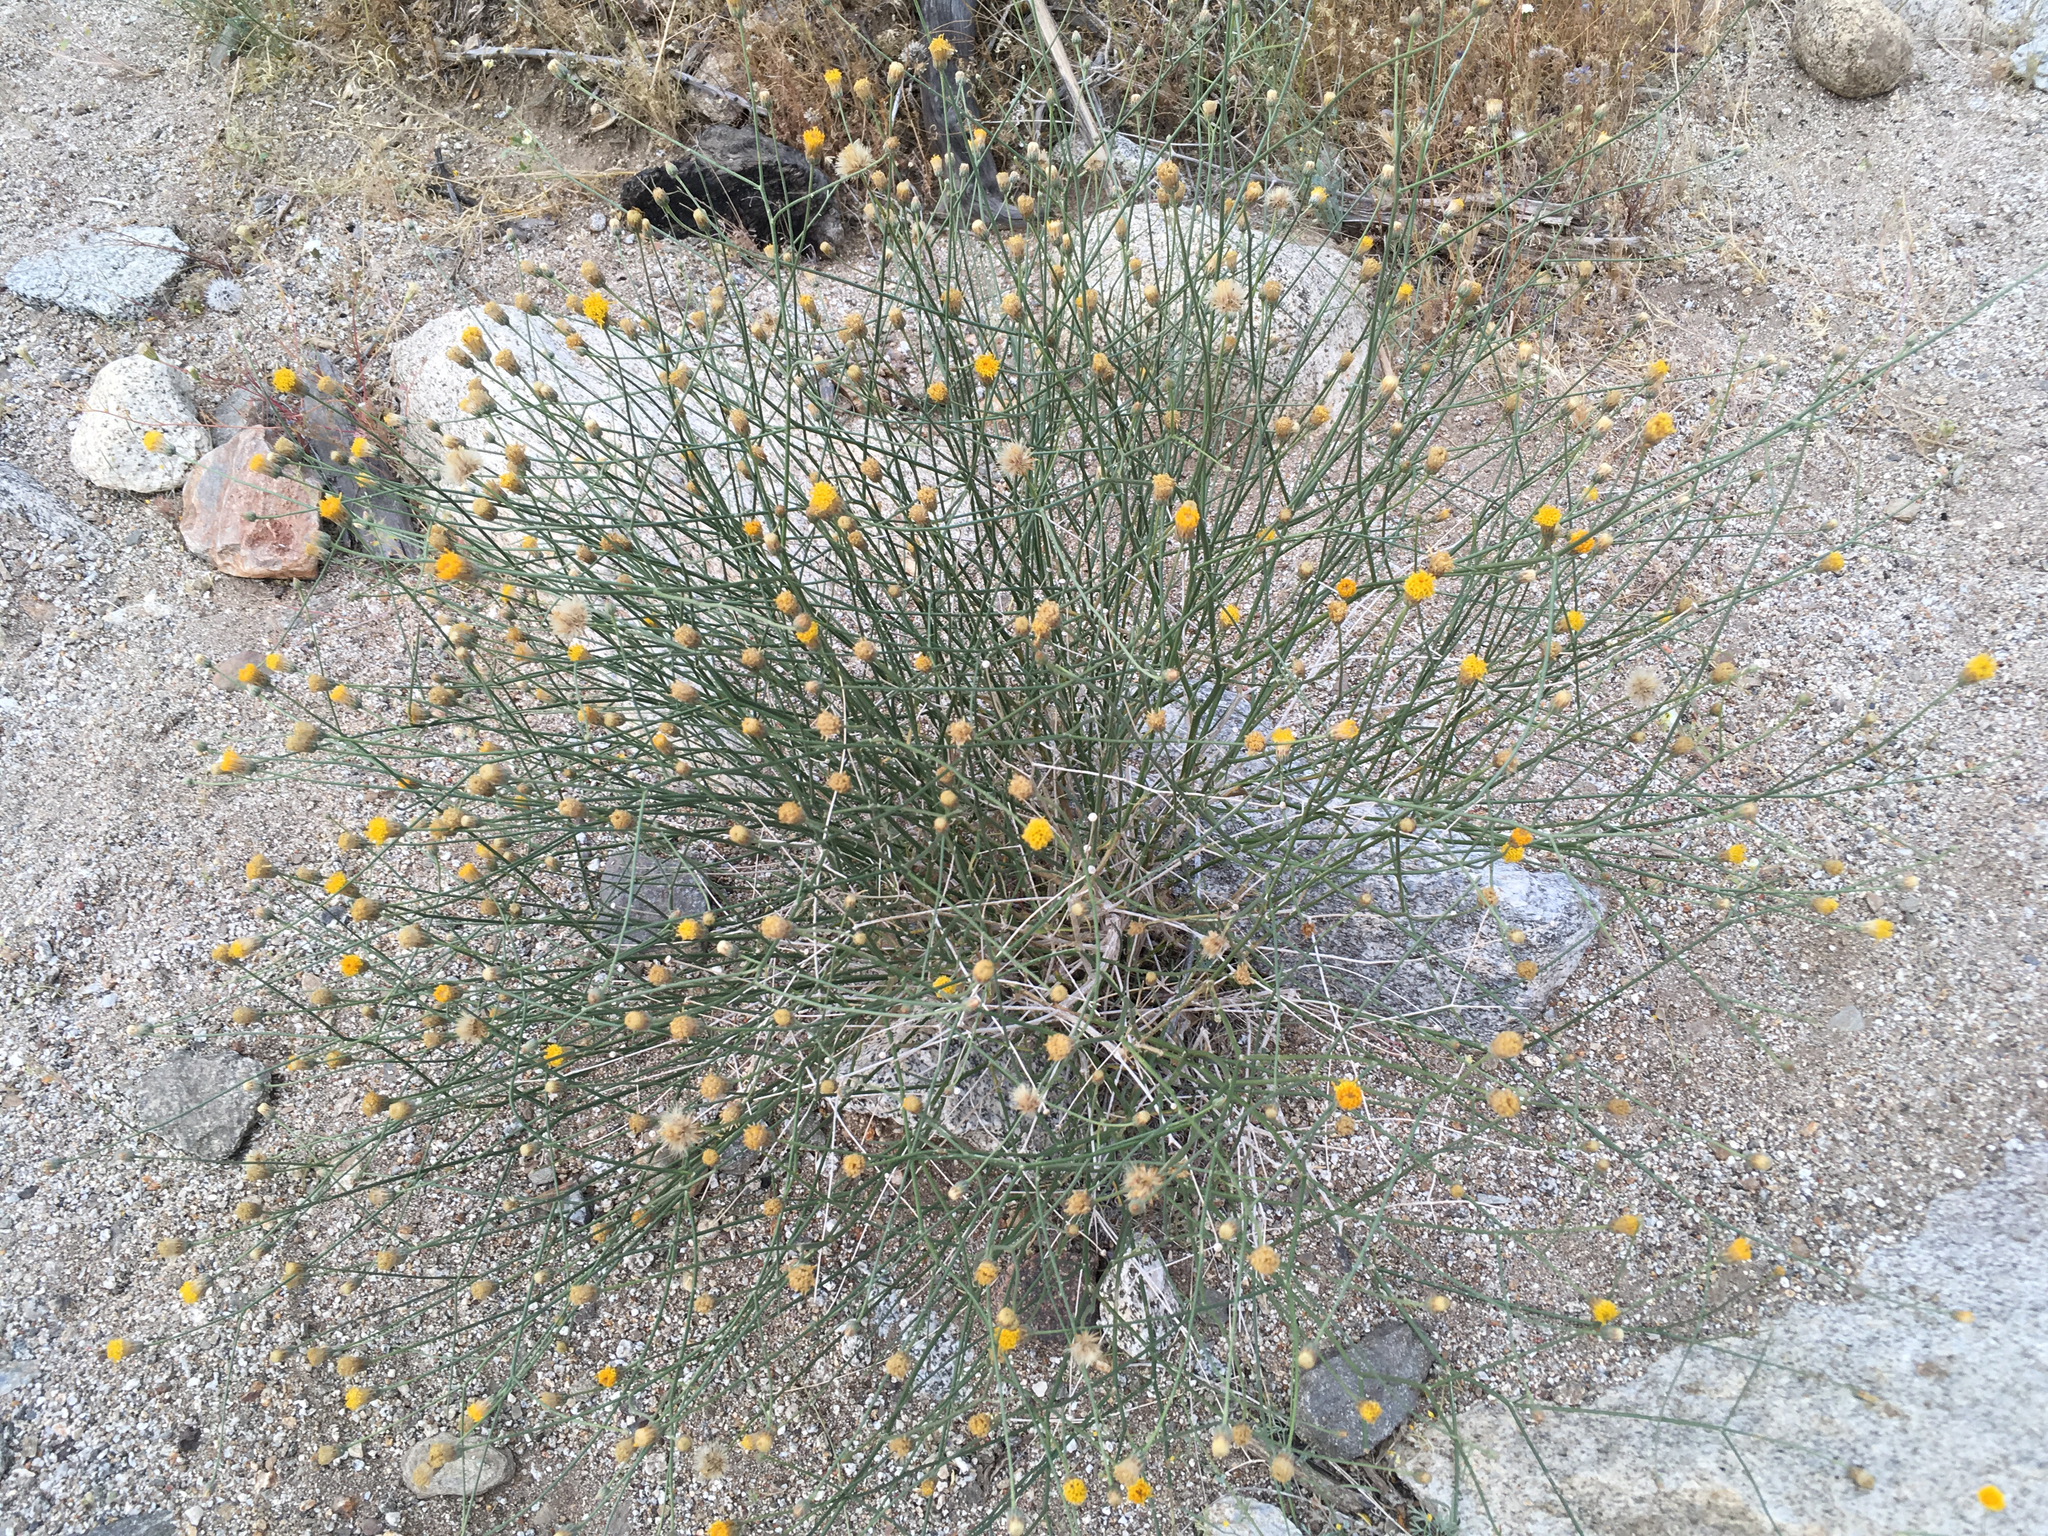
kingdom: Plantae
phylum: Tracheophyta
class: Magnoliopsida
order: Asterales
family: Asteraceae
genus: Bebbia
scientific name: Bebbia juncea
